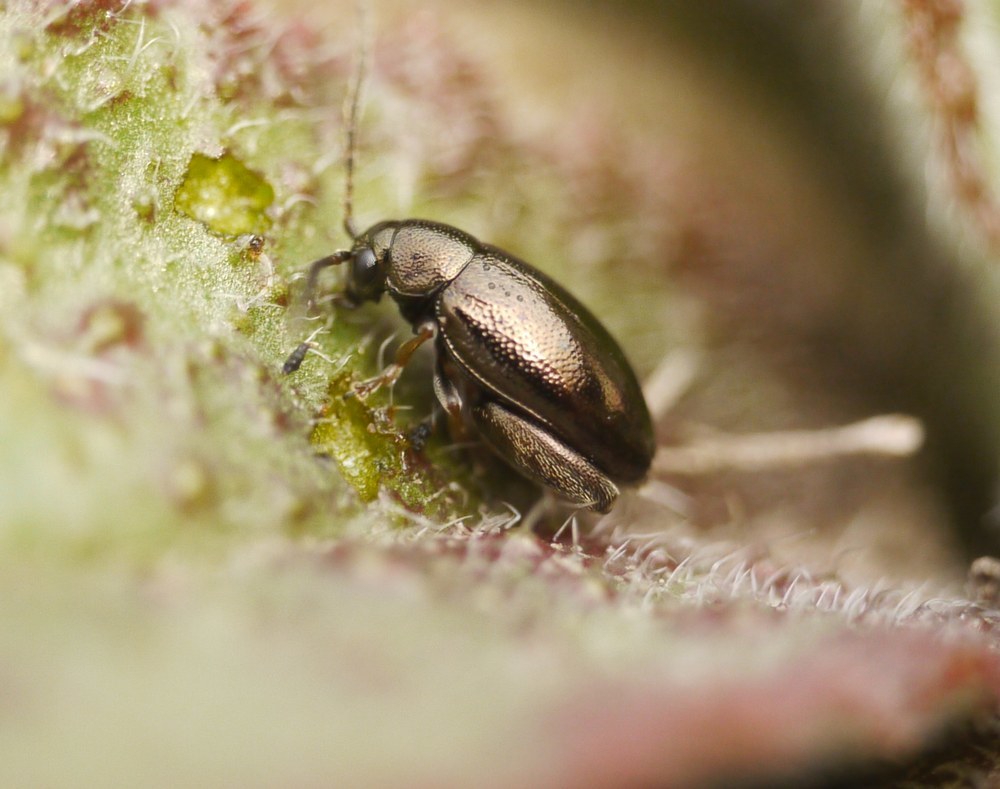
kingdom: Animalia
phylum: Arthropoda
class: Insecta
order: Coleoptera
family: Chrysomelidae
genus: Longitarsus
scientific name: Longitarsus echii
